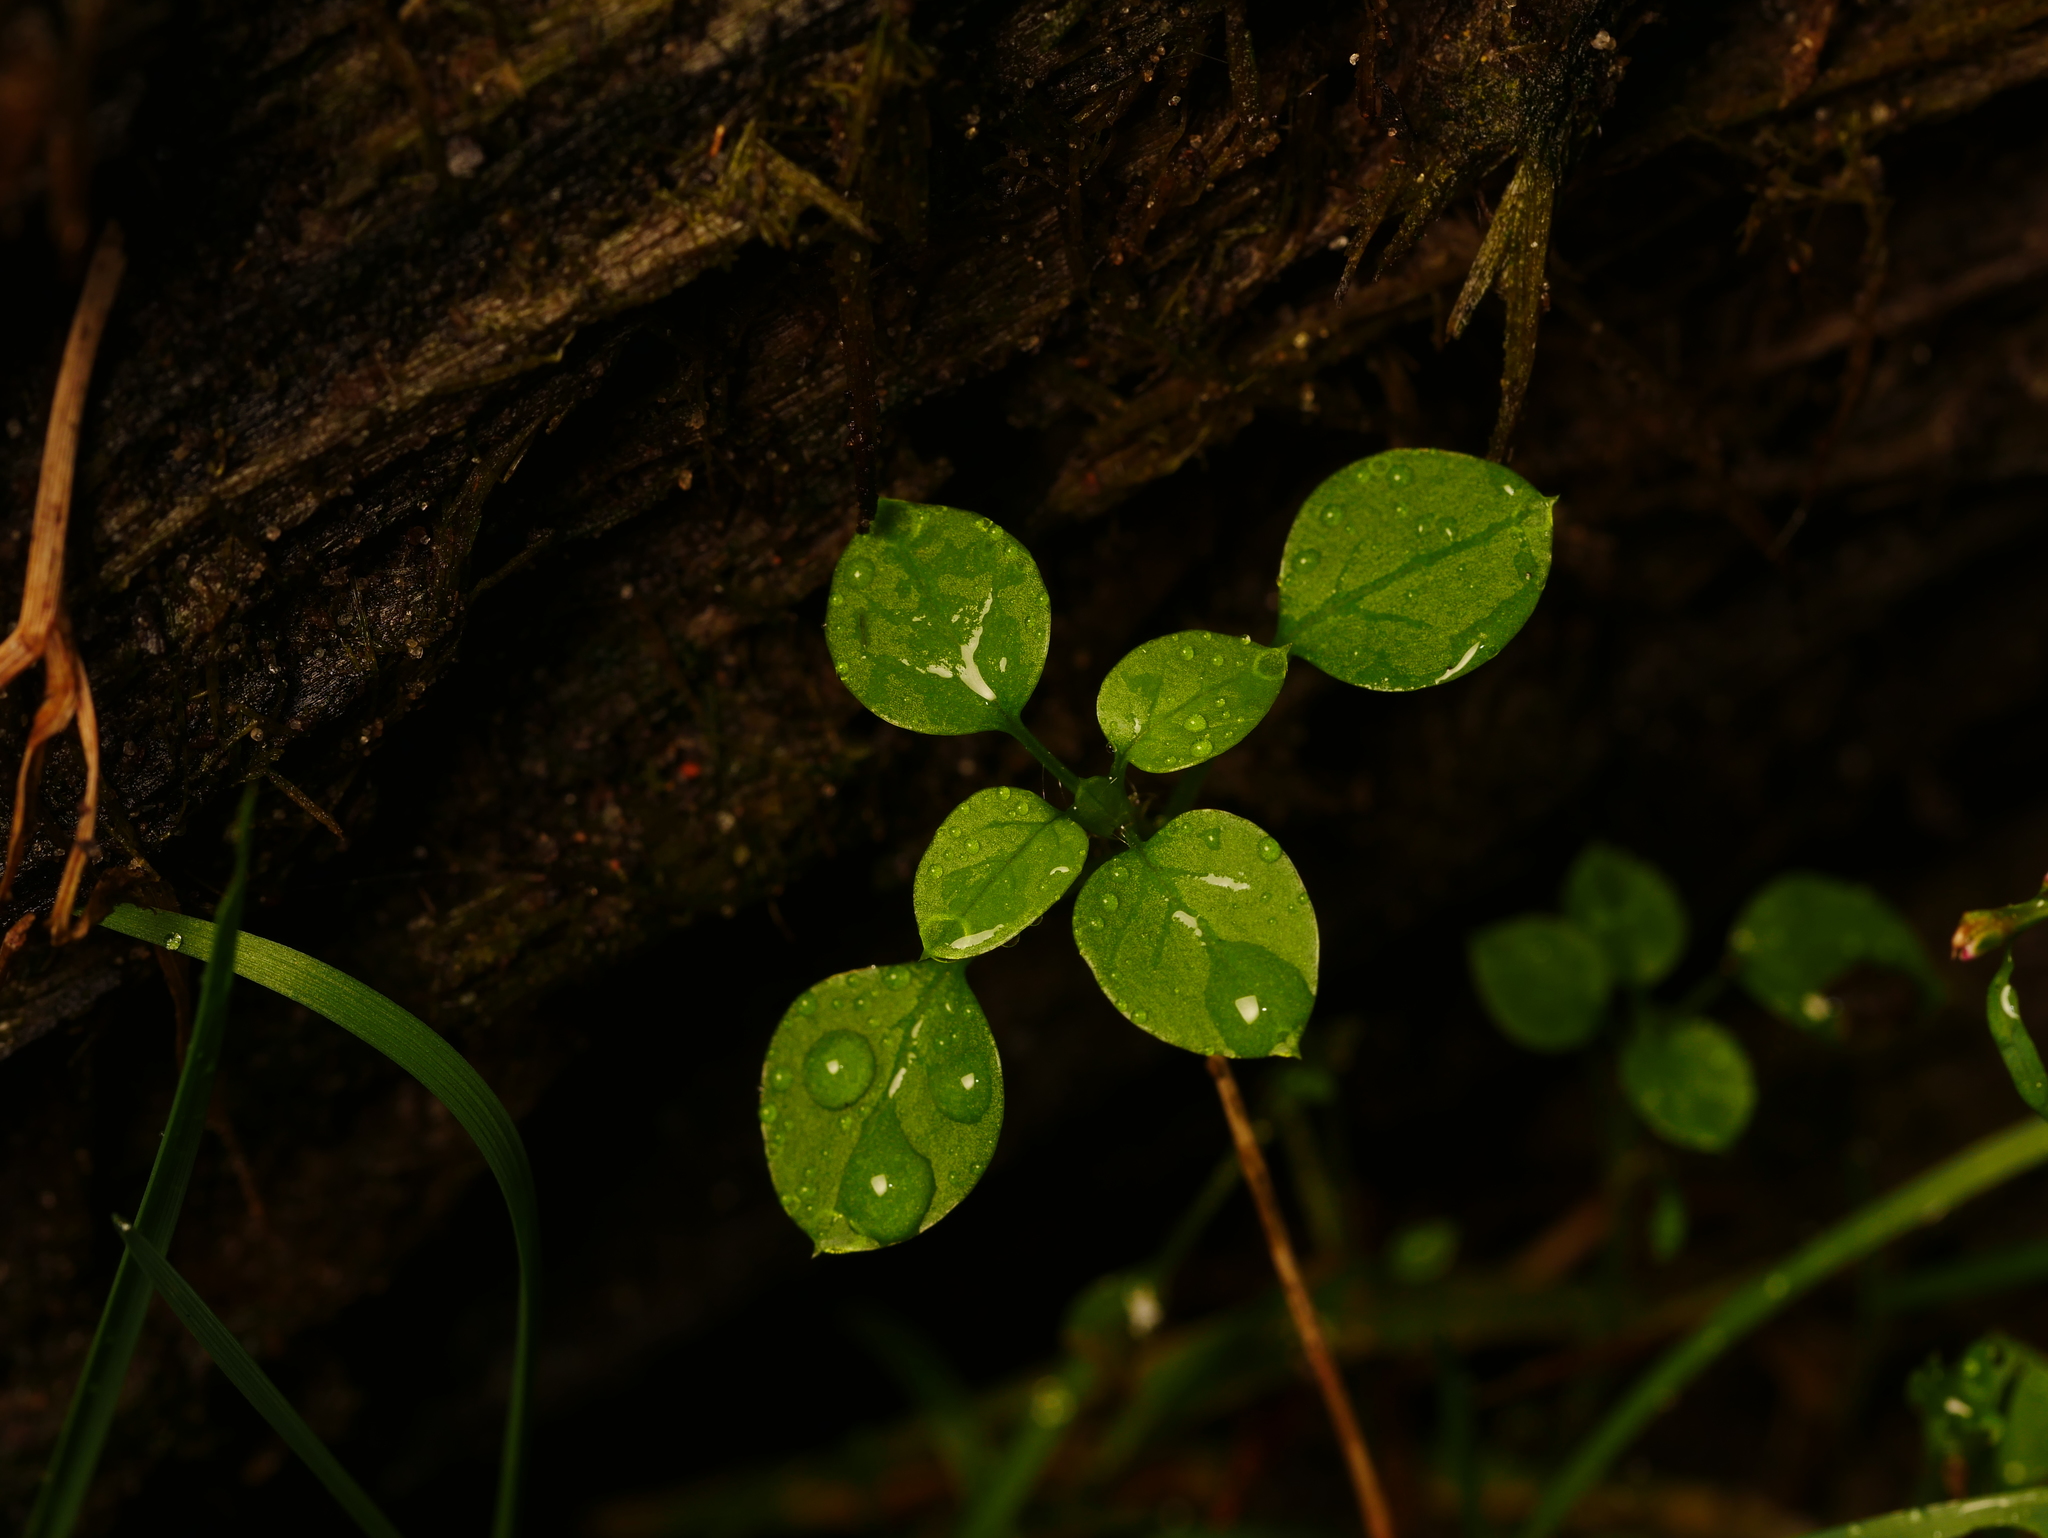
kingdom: Plantae
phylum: Tracheophyta
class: Magnoliopsida
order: Caryophyllales
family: Caryophyllaceae
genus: Stellaria
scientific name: Stellaria media
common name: Common chickweed
